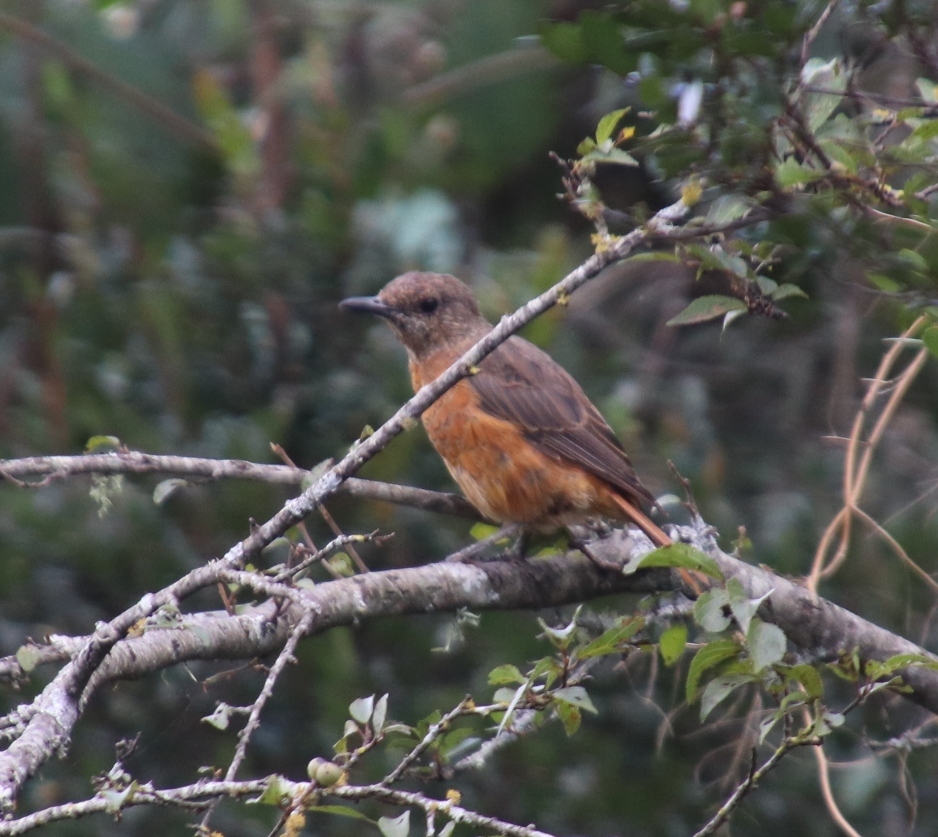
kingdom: Animalia
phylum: Chordata
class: Aves
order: Passeriformes
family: Muscicapidae
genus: Monticola
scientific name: Monticola rupestris
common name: Cape rock thrush
